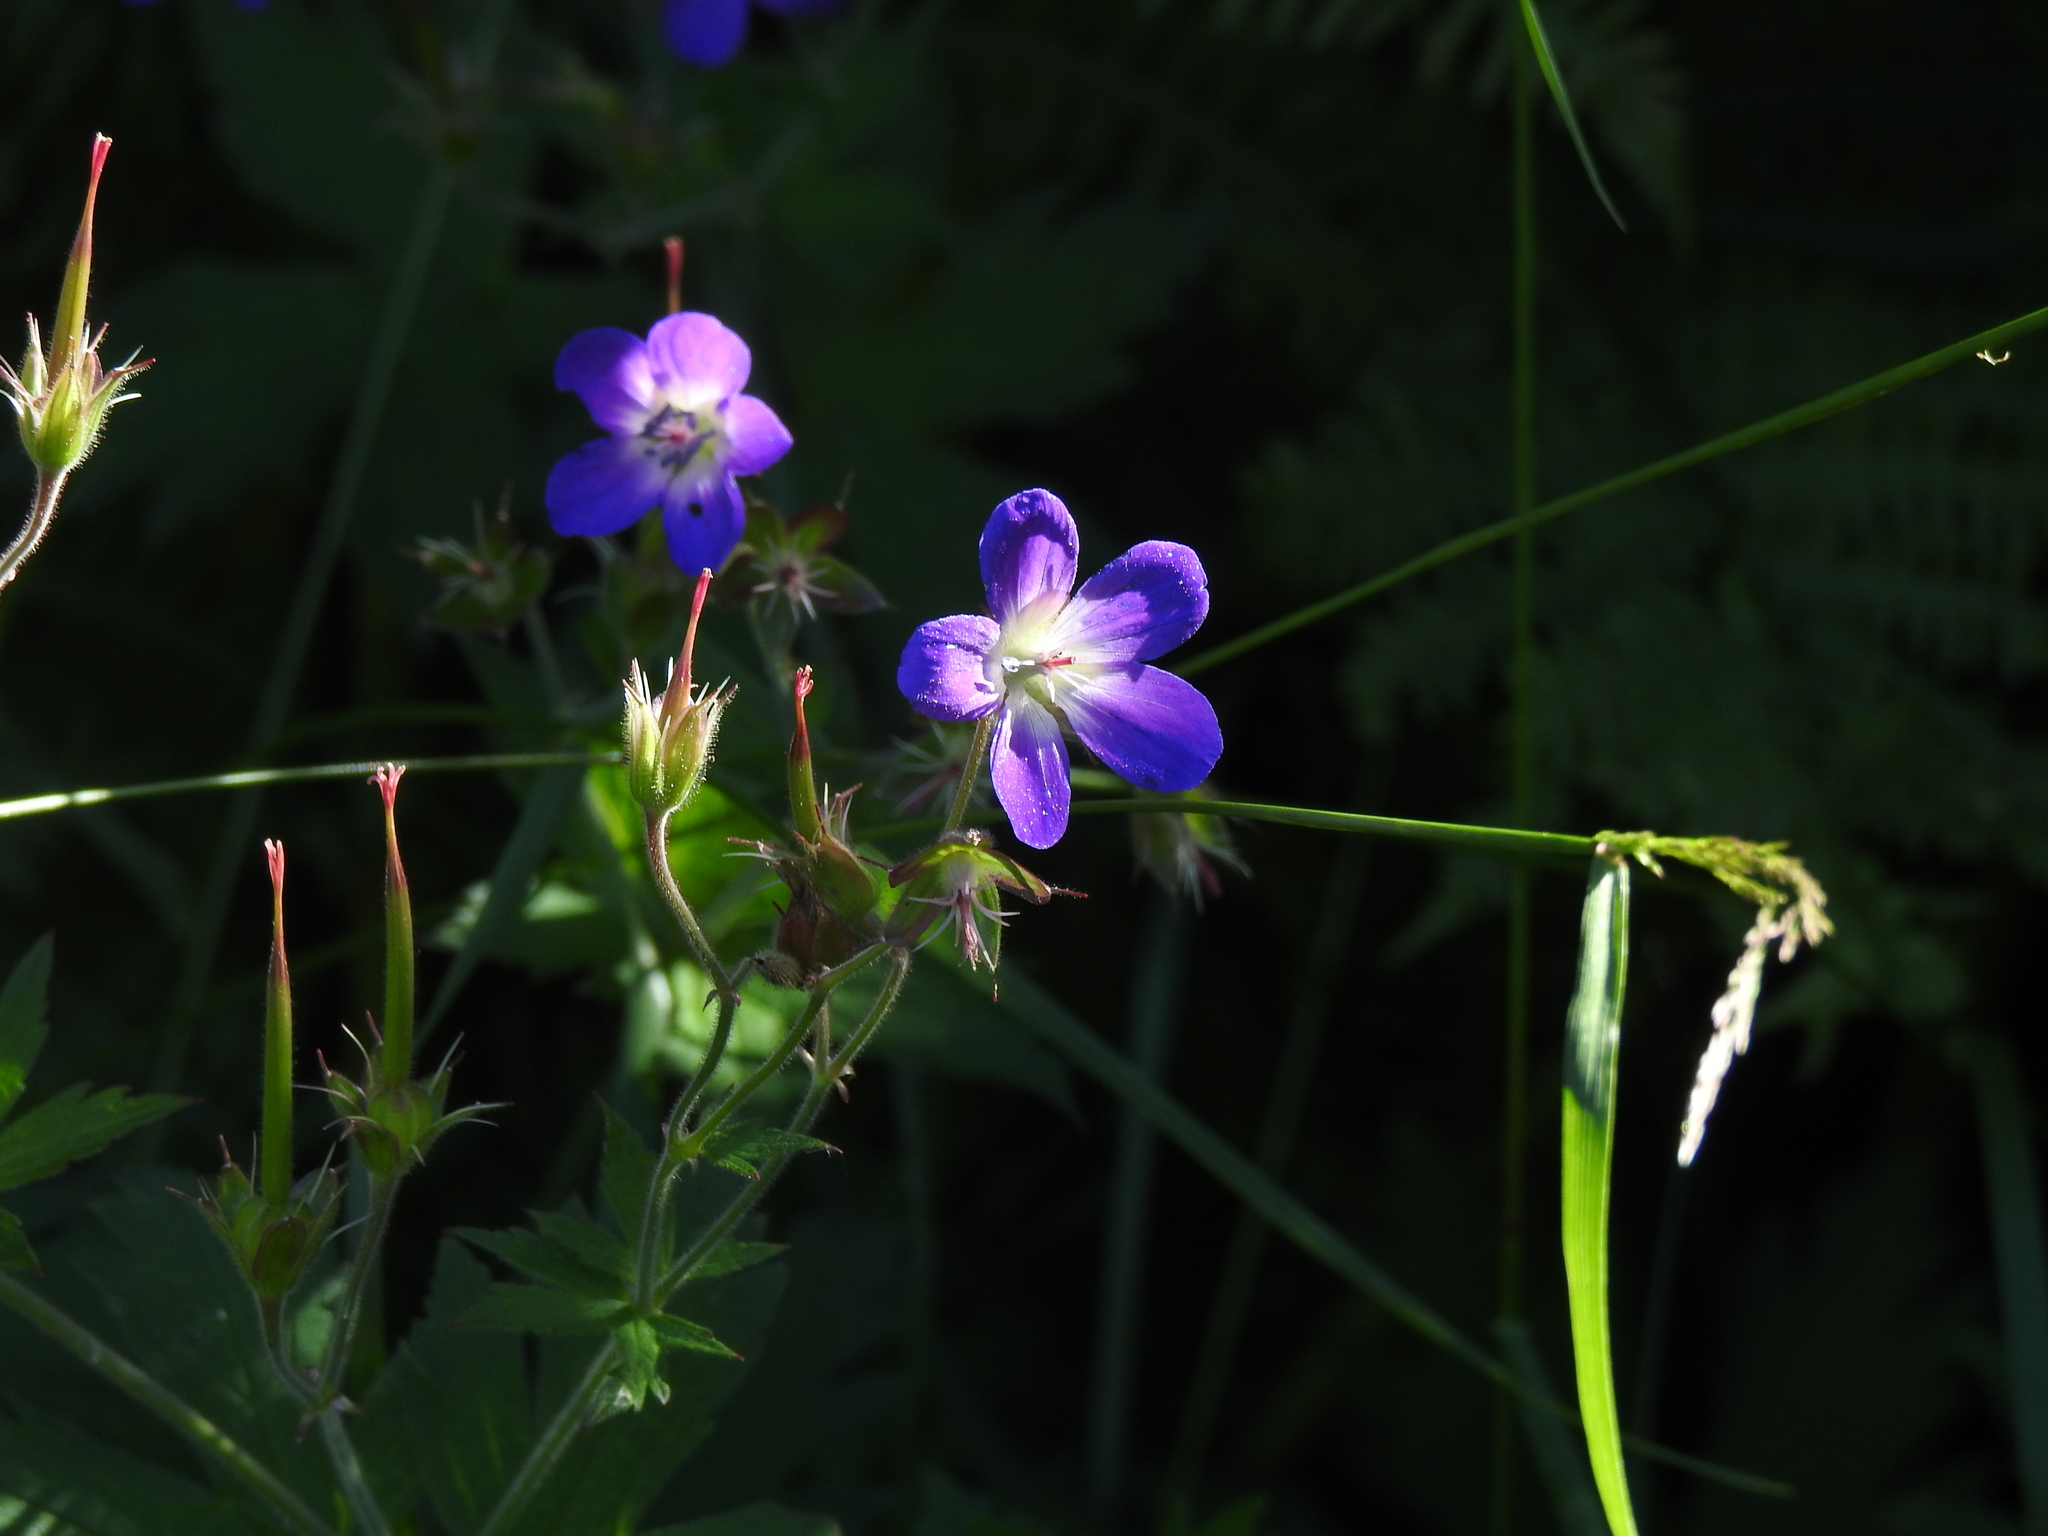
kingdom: Plantae
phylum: Tracheophyta
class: Magnoliopsida
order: Geraniales
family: Geraniaceae
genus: Geranium
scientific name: Geranium sylvaticum
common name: Wood crane's-bill
